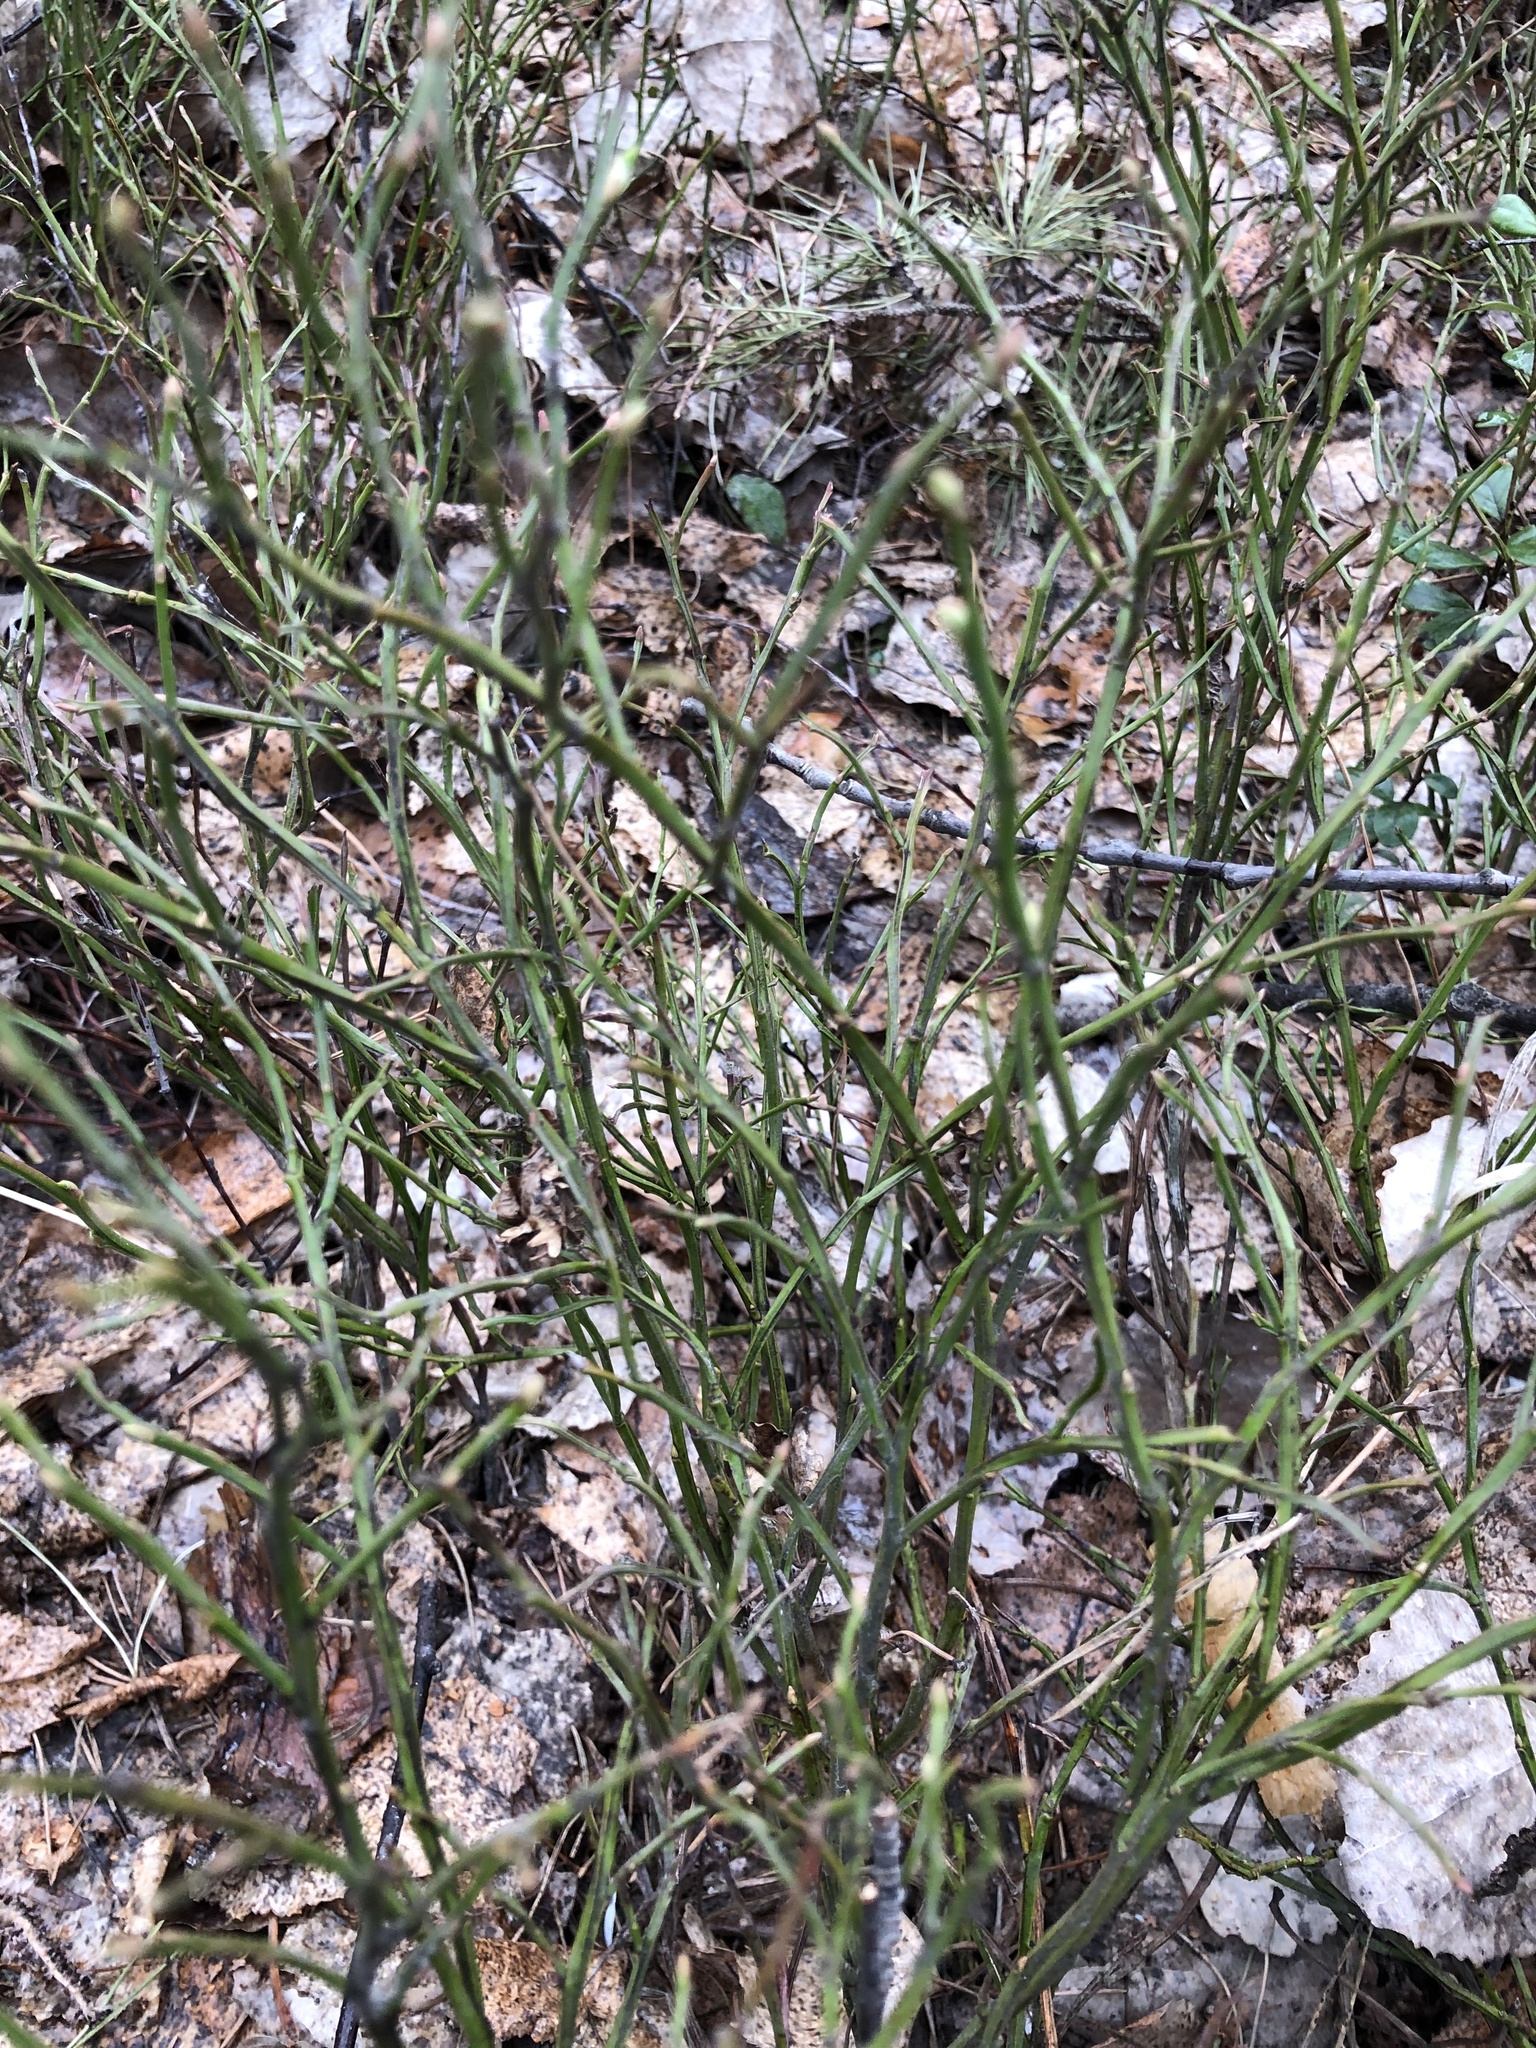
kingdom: Plantae
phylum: Tracheophyta
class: Magnoliopsida
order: Ericales
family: Ericaceae
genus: Vaccinium
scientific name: Vaccinium myrtillus
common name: Bilberry
